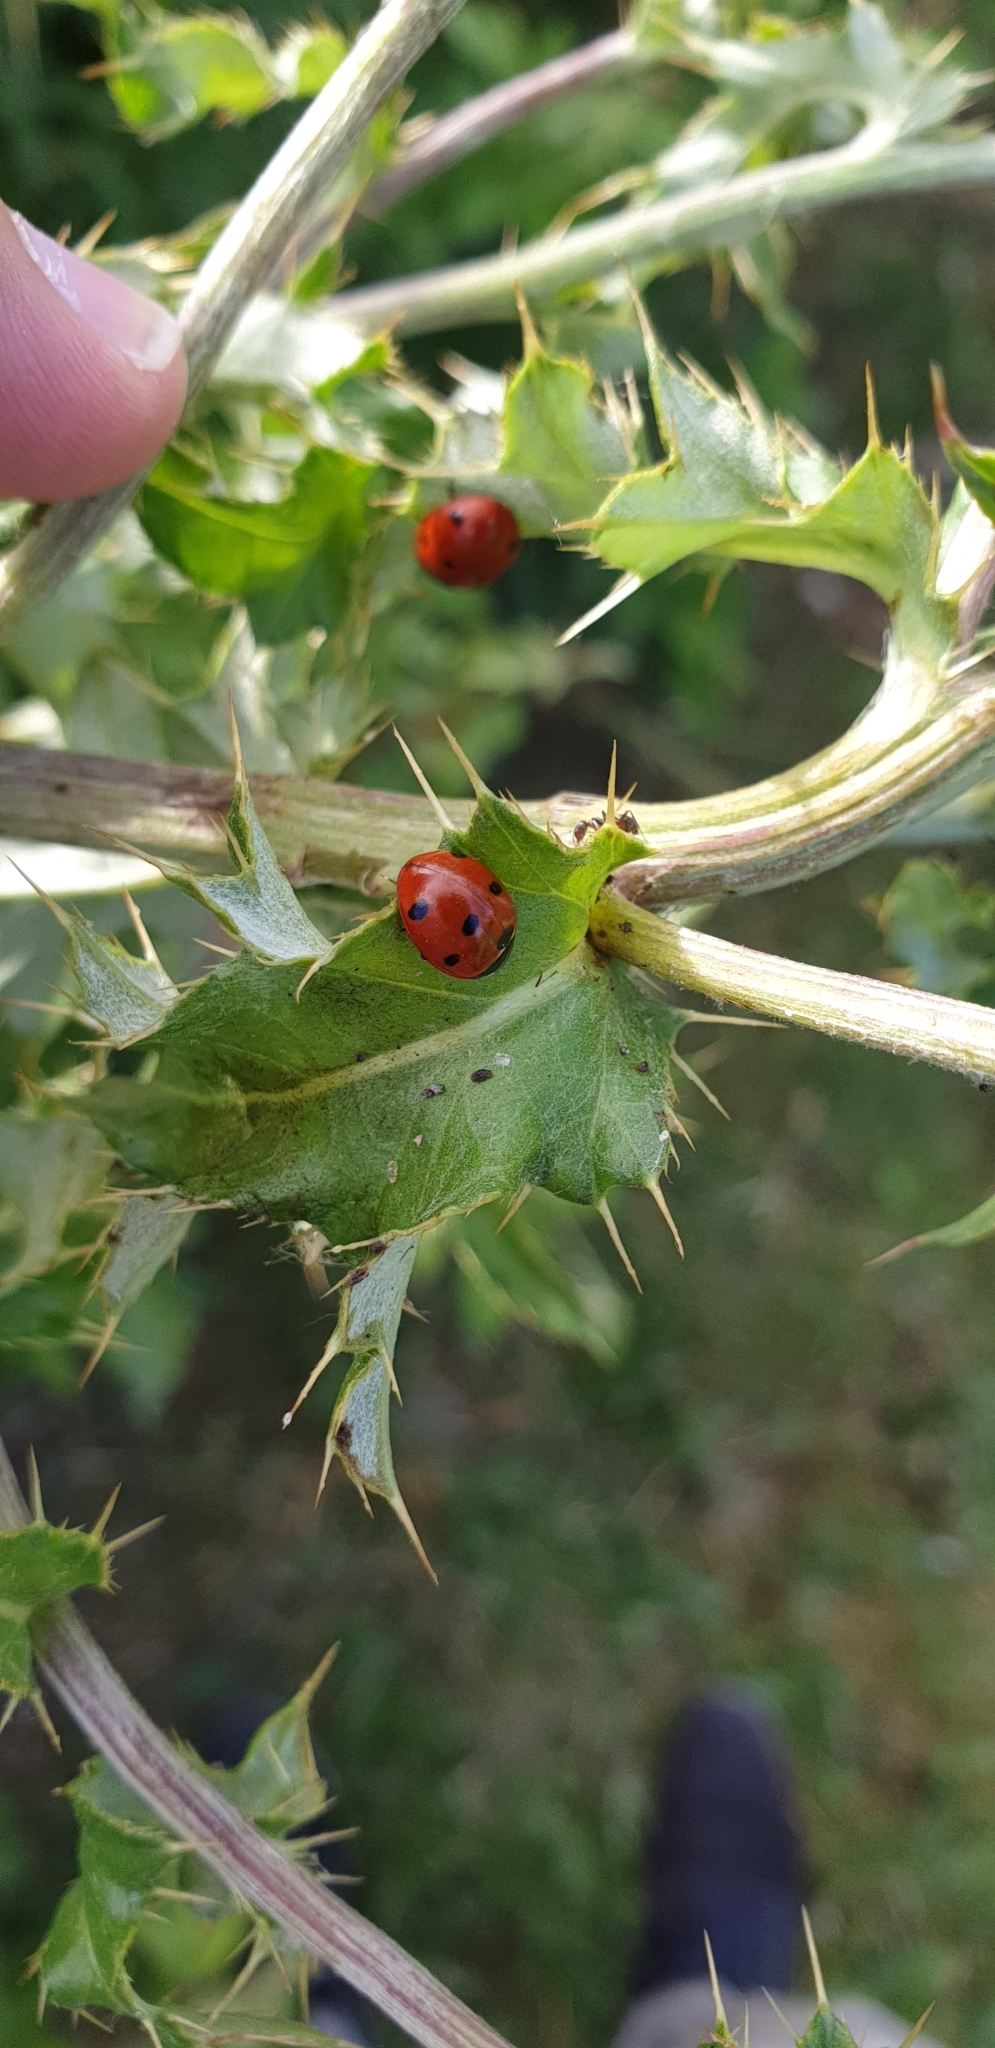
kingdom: Animalia
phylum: Arthropoda
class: Insecta
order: Coleoptera
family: Coccinellidae
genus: Coccinella
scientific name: Coccinella septempunctata
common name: Sevenspotted lady beetle
